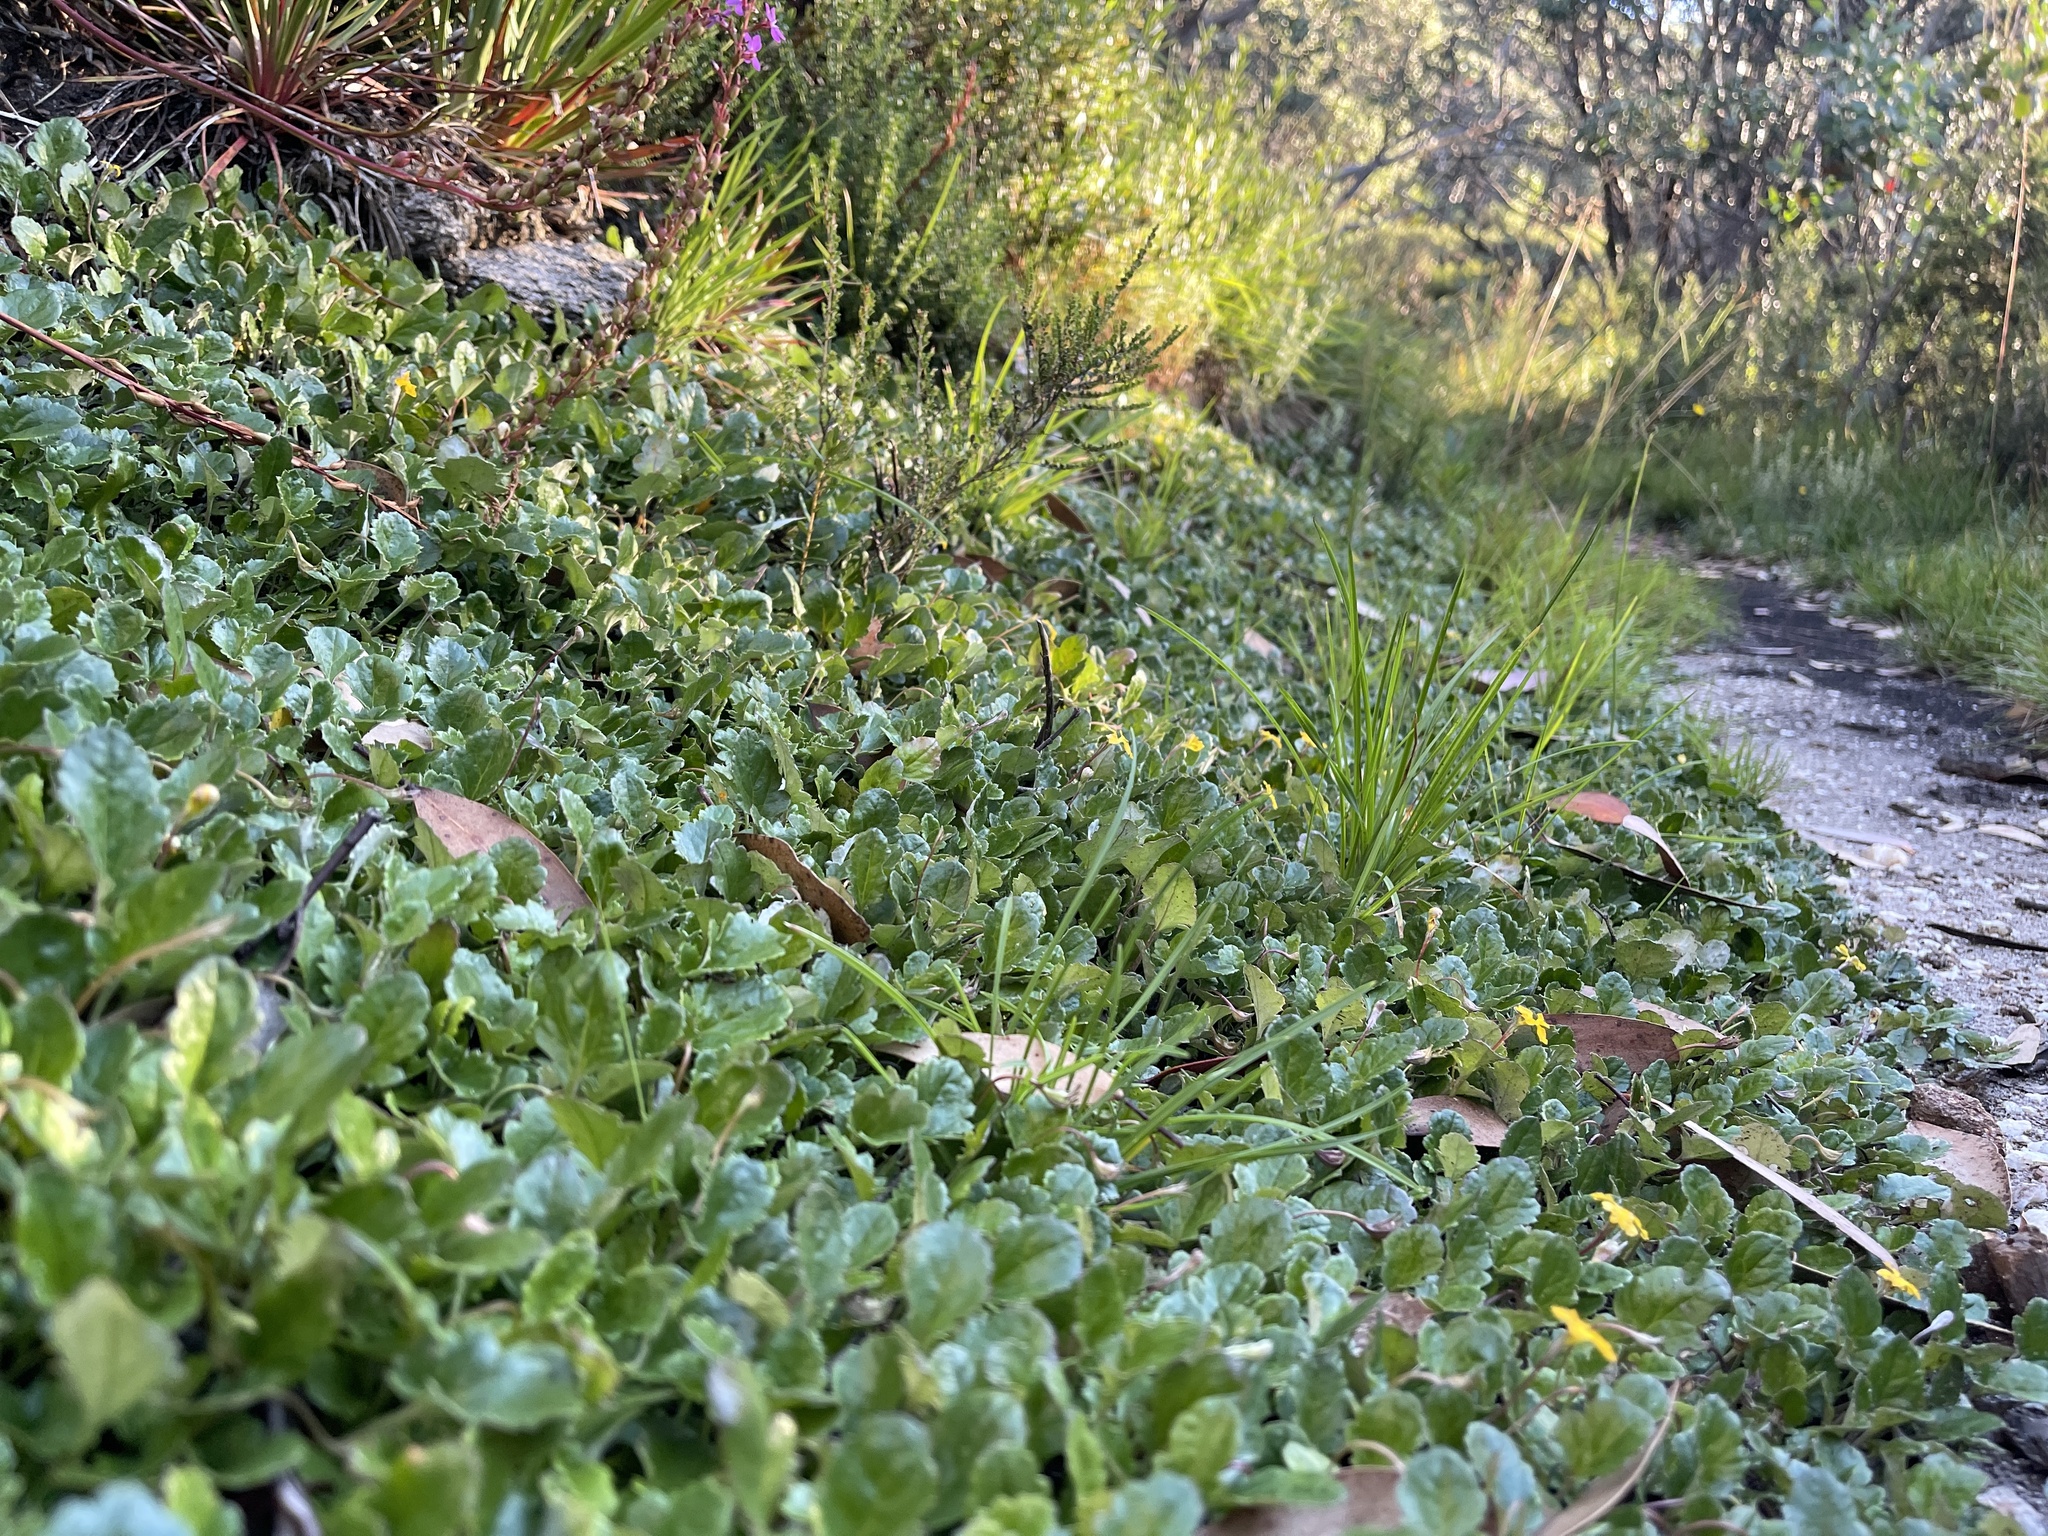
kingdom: Plantae
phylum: Tracheophyta
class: Magnoliopsida
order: Asterales
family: Goodeniaceae
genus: Goodenia
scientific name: Goodenia hederacea
